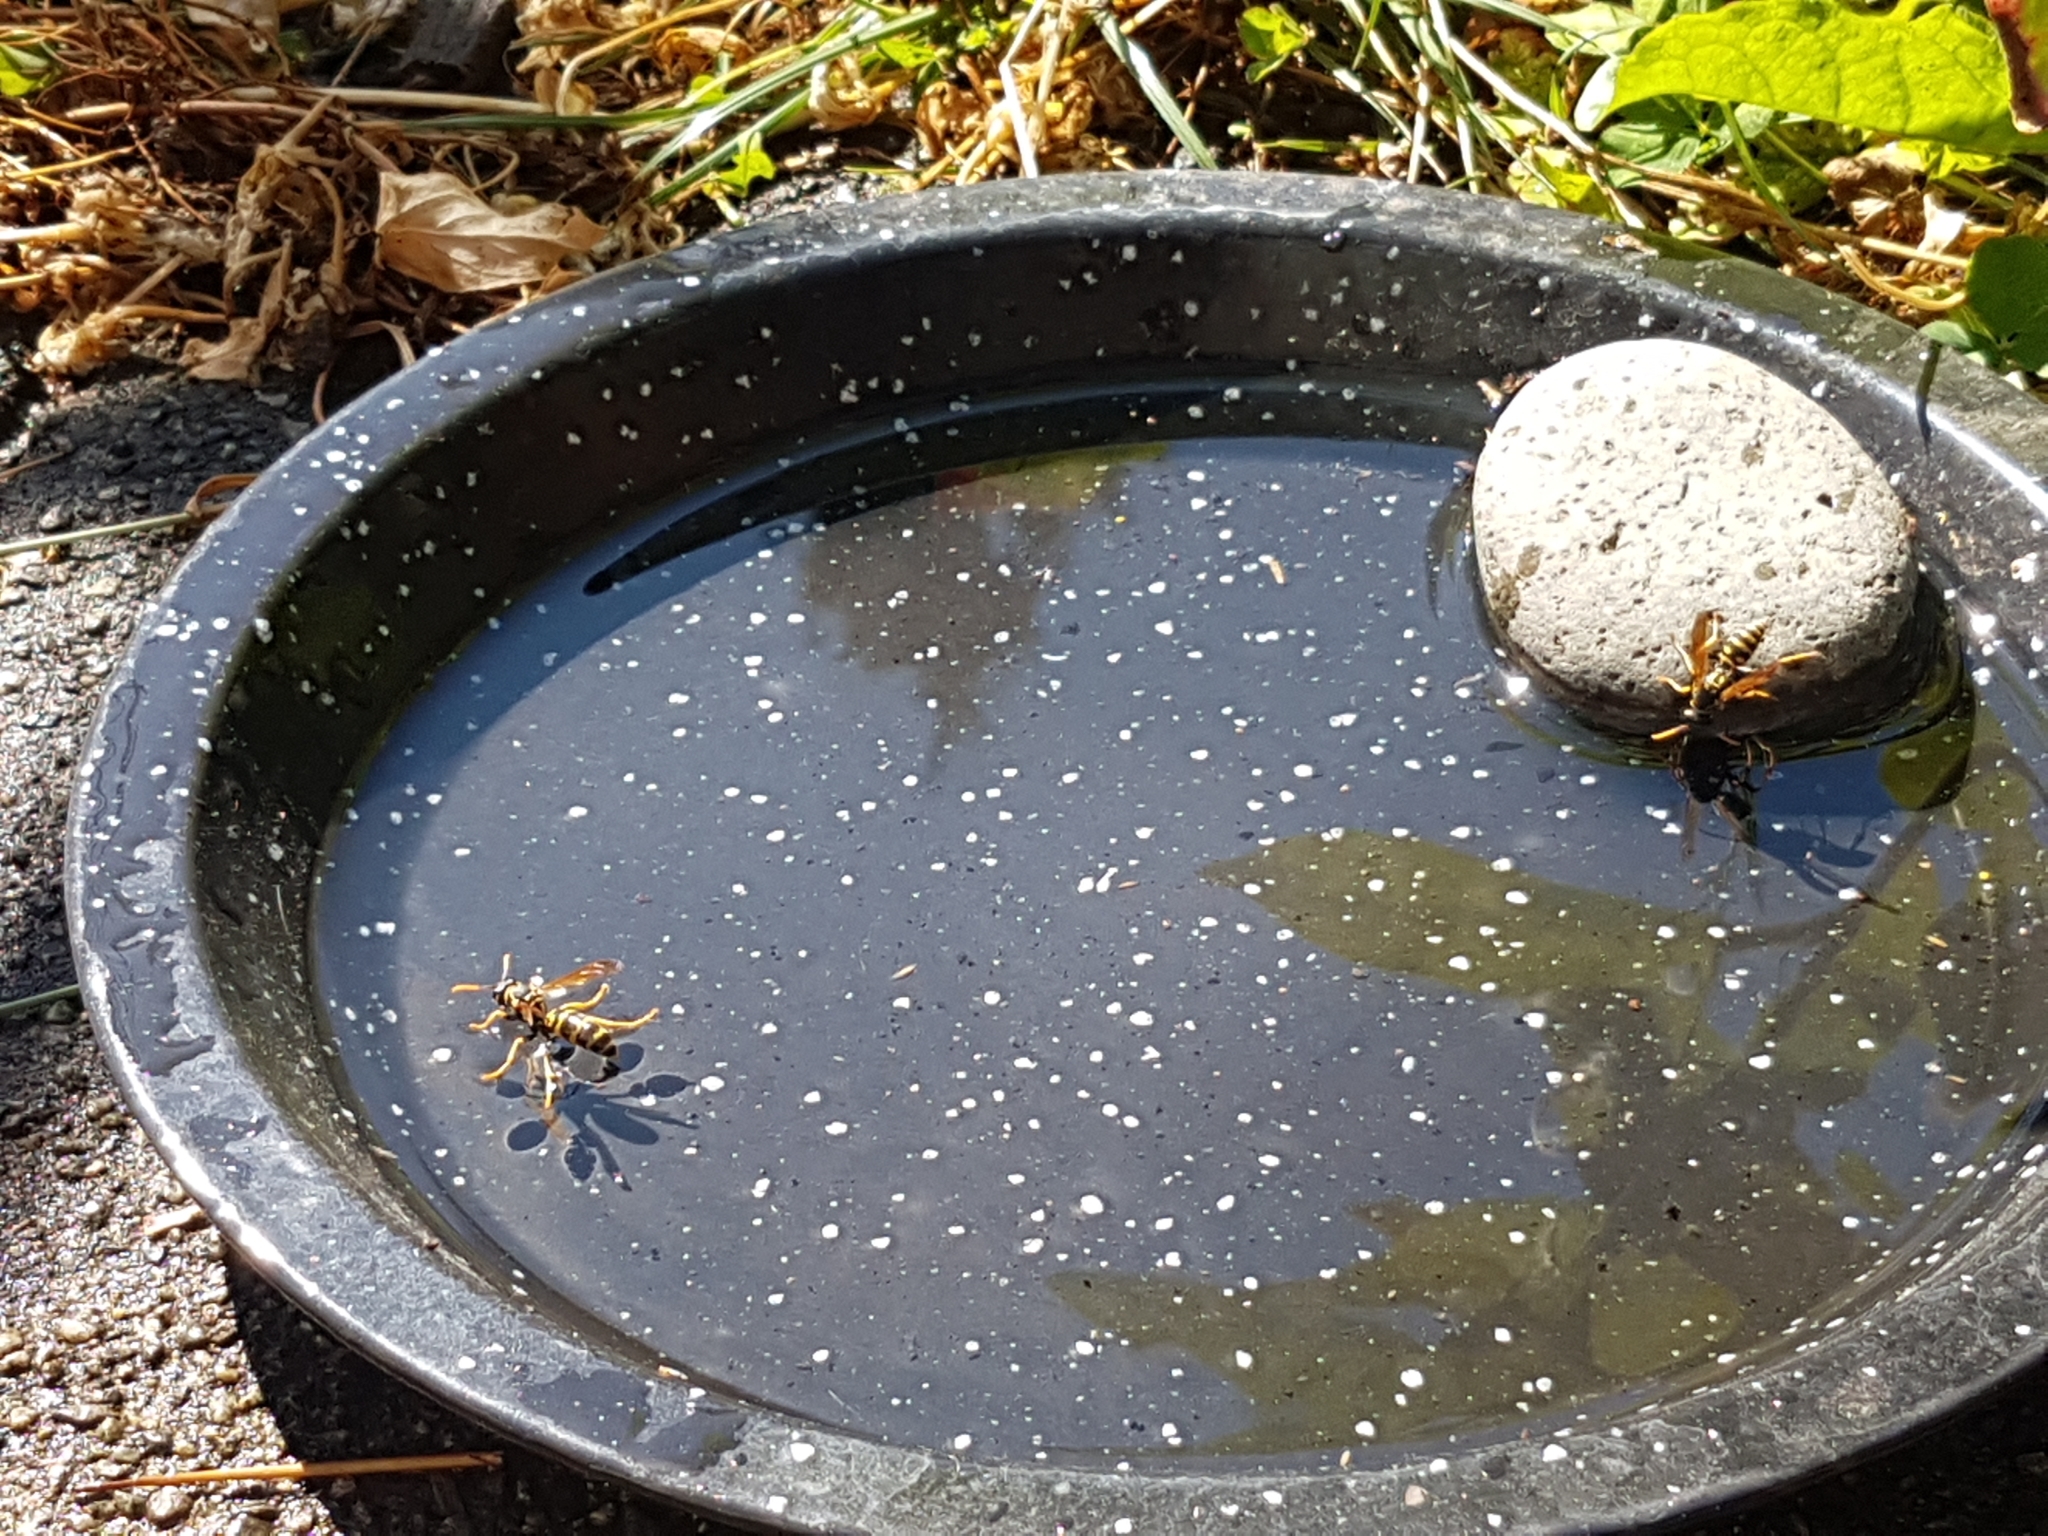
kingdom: Animalia
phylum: Arthropoda
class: Insecta
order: Hymenoptera
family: Eumenidae
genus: Polistes
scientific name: Polistes dominula
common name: Paper wasp
